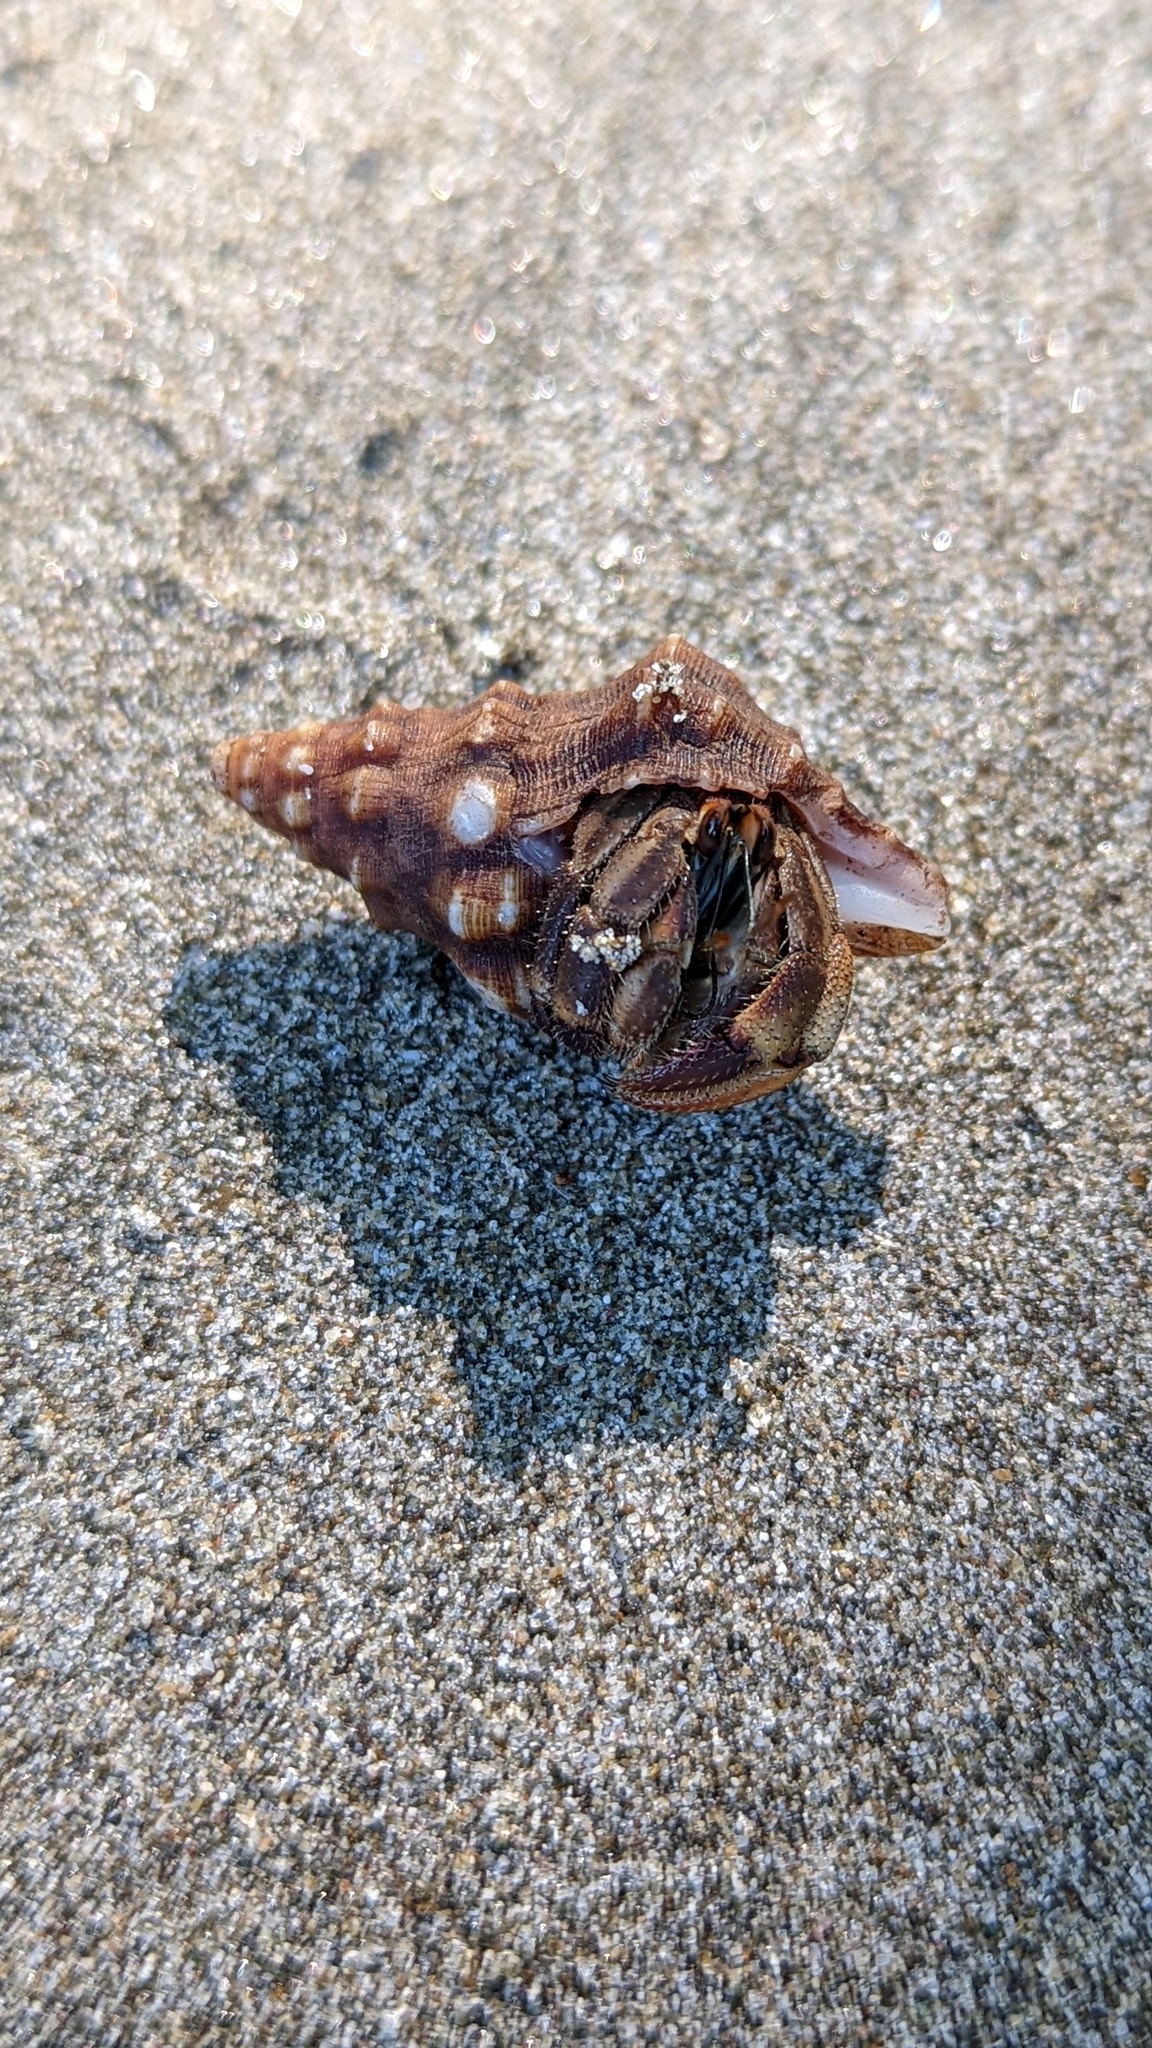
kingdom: Animalia
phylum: Mollusca
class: Gastropoda
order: Neogastropoda
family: Fasciolariidae
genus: Leucozonia
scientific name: Leucozonia cerata
